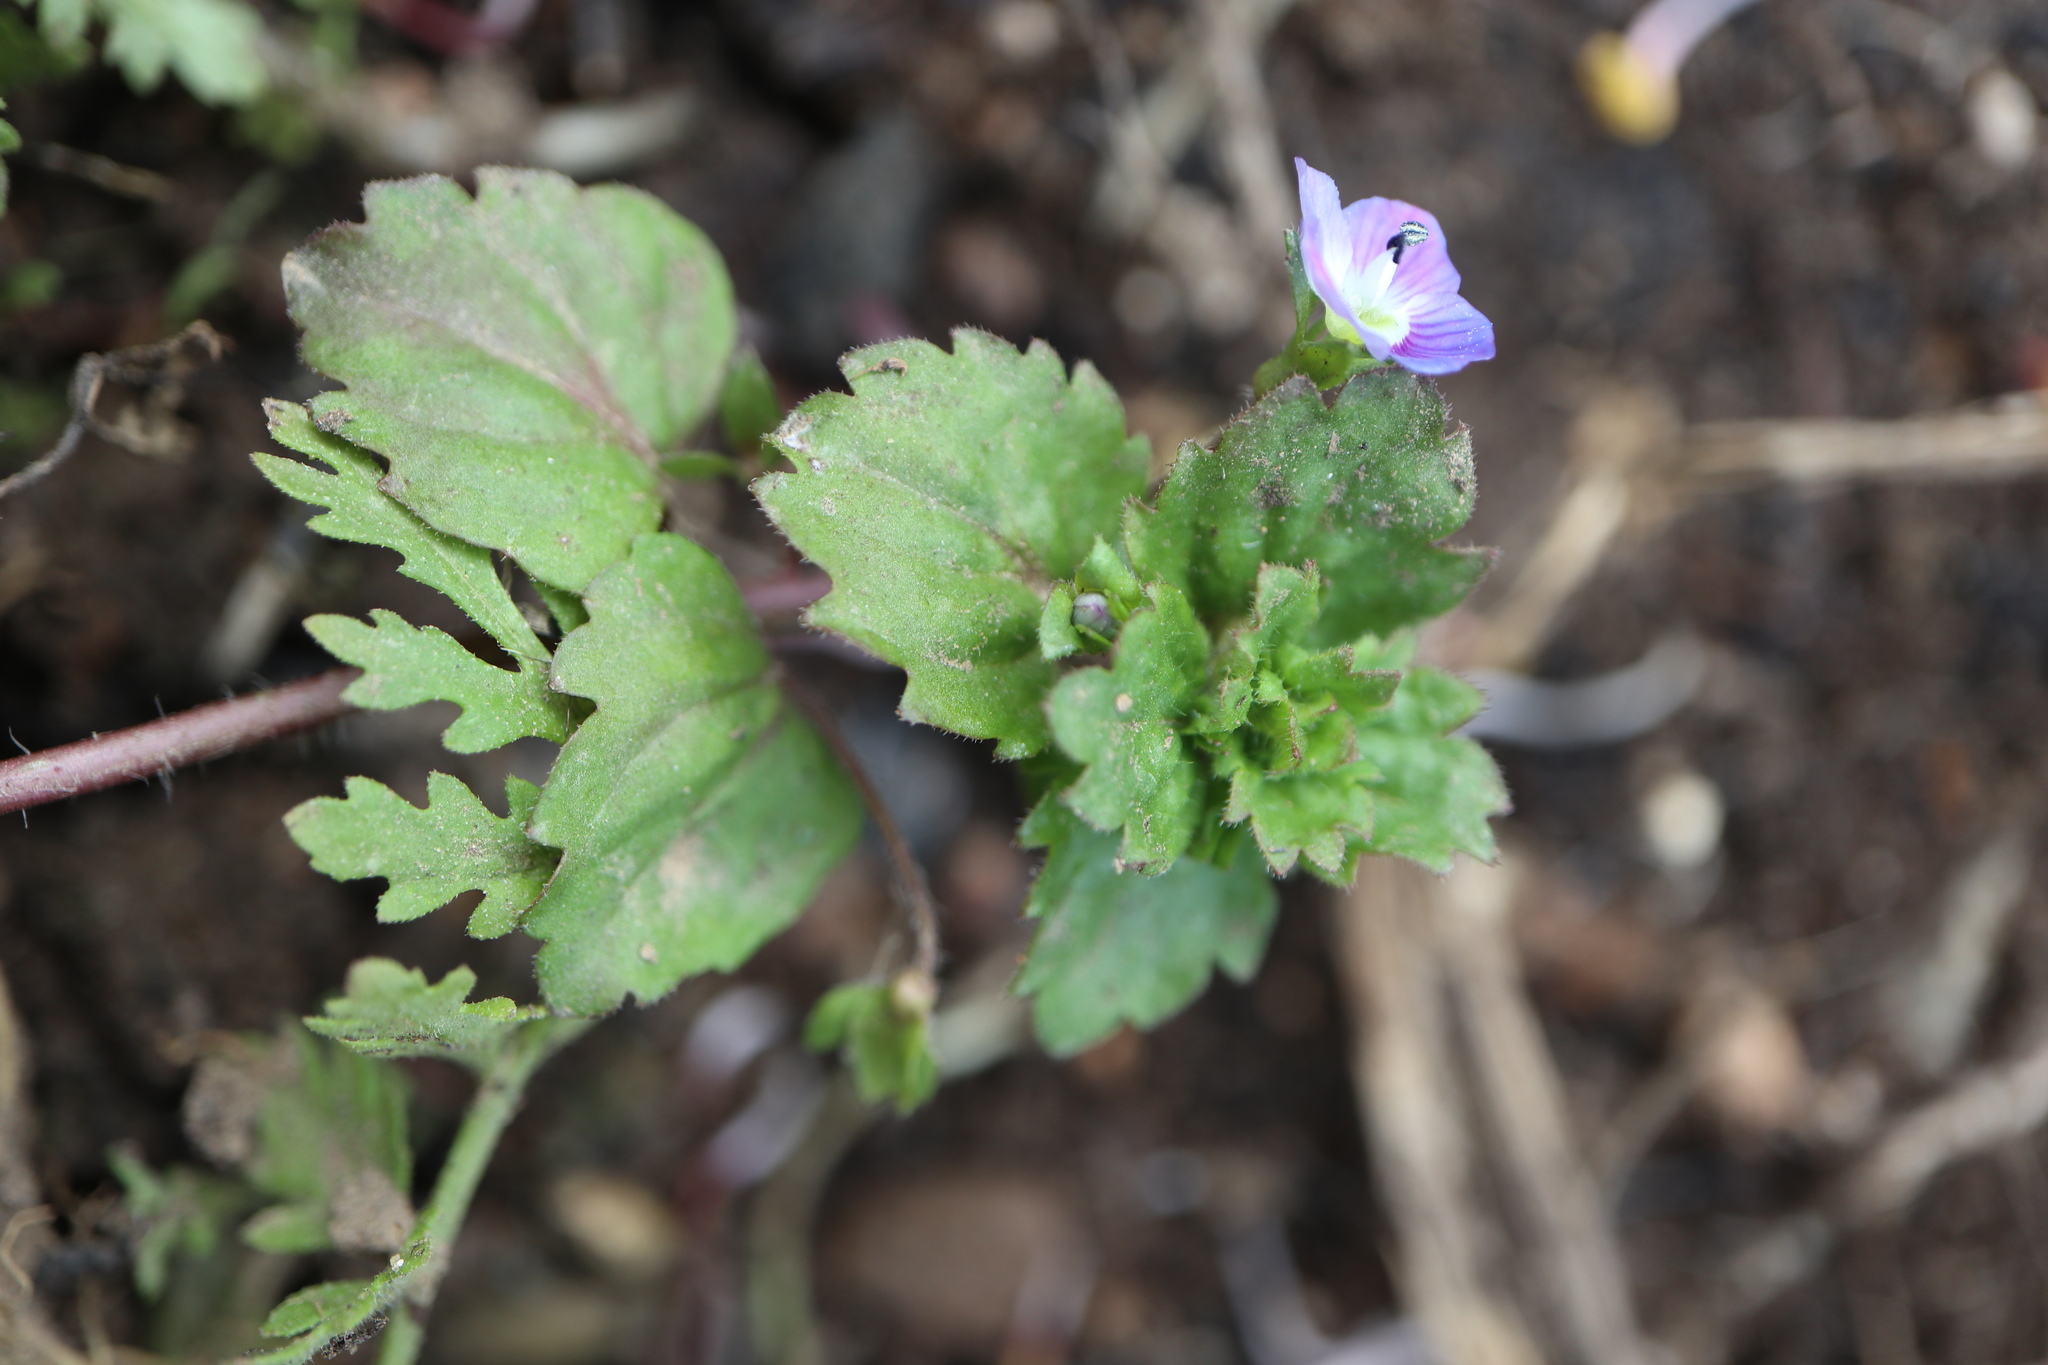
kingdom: Plantae
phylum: Tracheophyta
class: Magnoliopsida
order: Lamiales
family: Plantaginaceae
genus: Veronica
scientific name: Veronica persica
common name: Common field-speedwell
